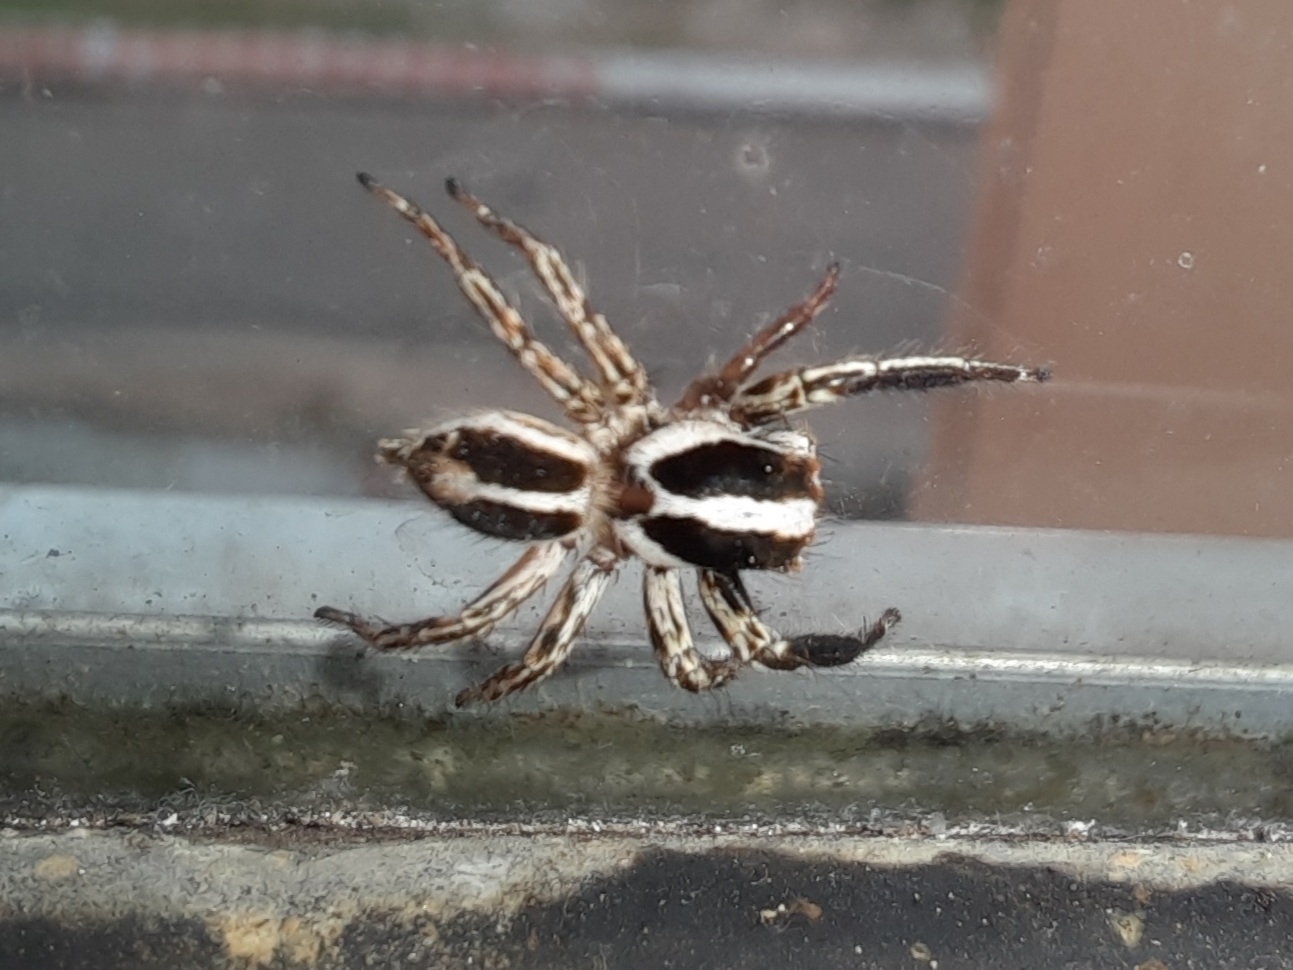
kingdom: Animalia
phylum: Arthropoda
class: Arachnida
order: Araneae
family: Salticidae
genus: Plexippus
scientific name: Plexippus paykulli
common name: Pantropical jumper
